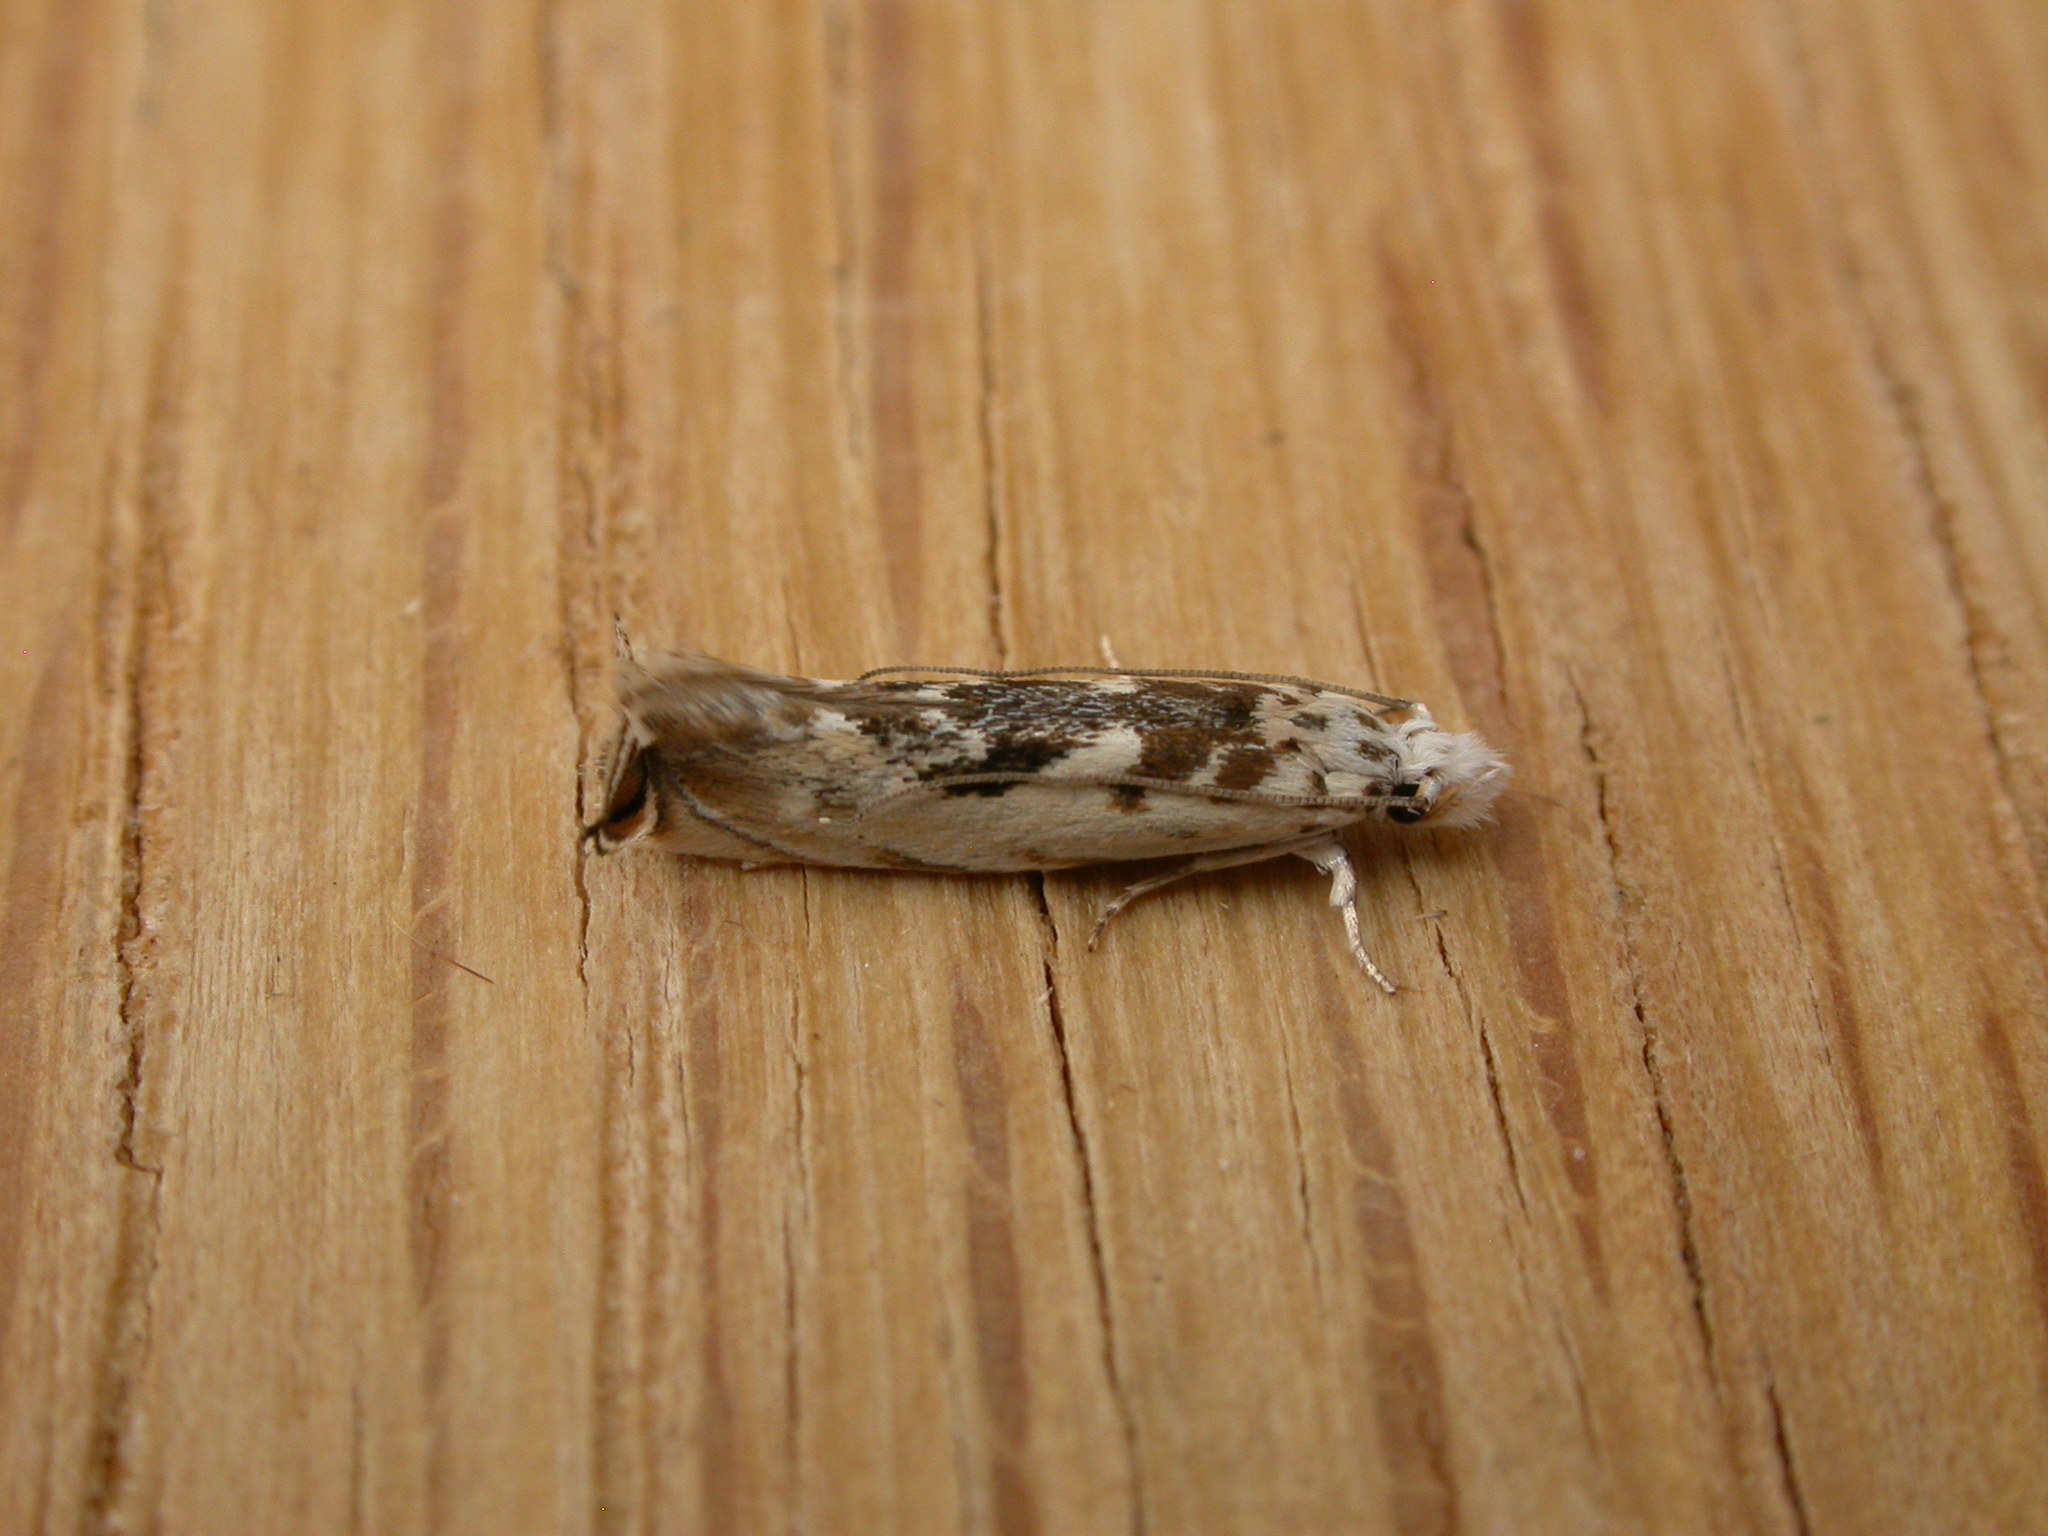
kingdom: Animalia
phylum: Arthropoda
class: Insecta
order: Lepidoptera
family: Tineidae
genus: Erechthias
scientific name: Erechthias mystacinella
